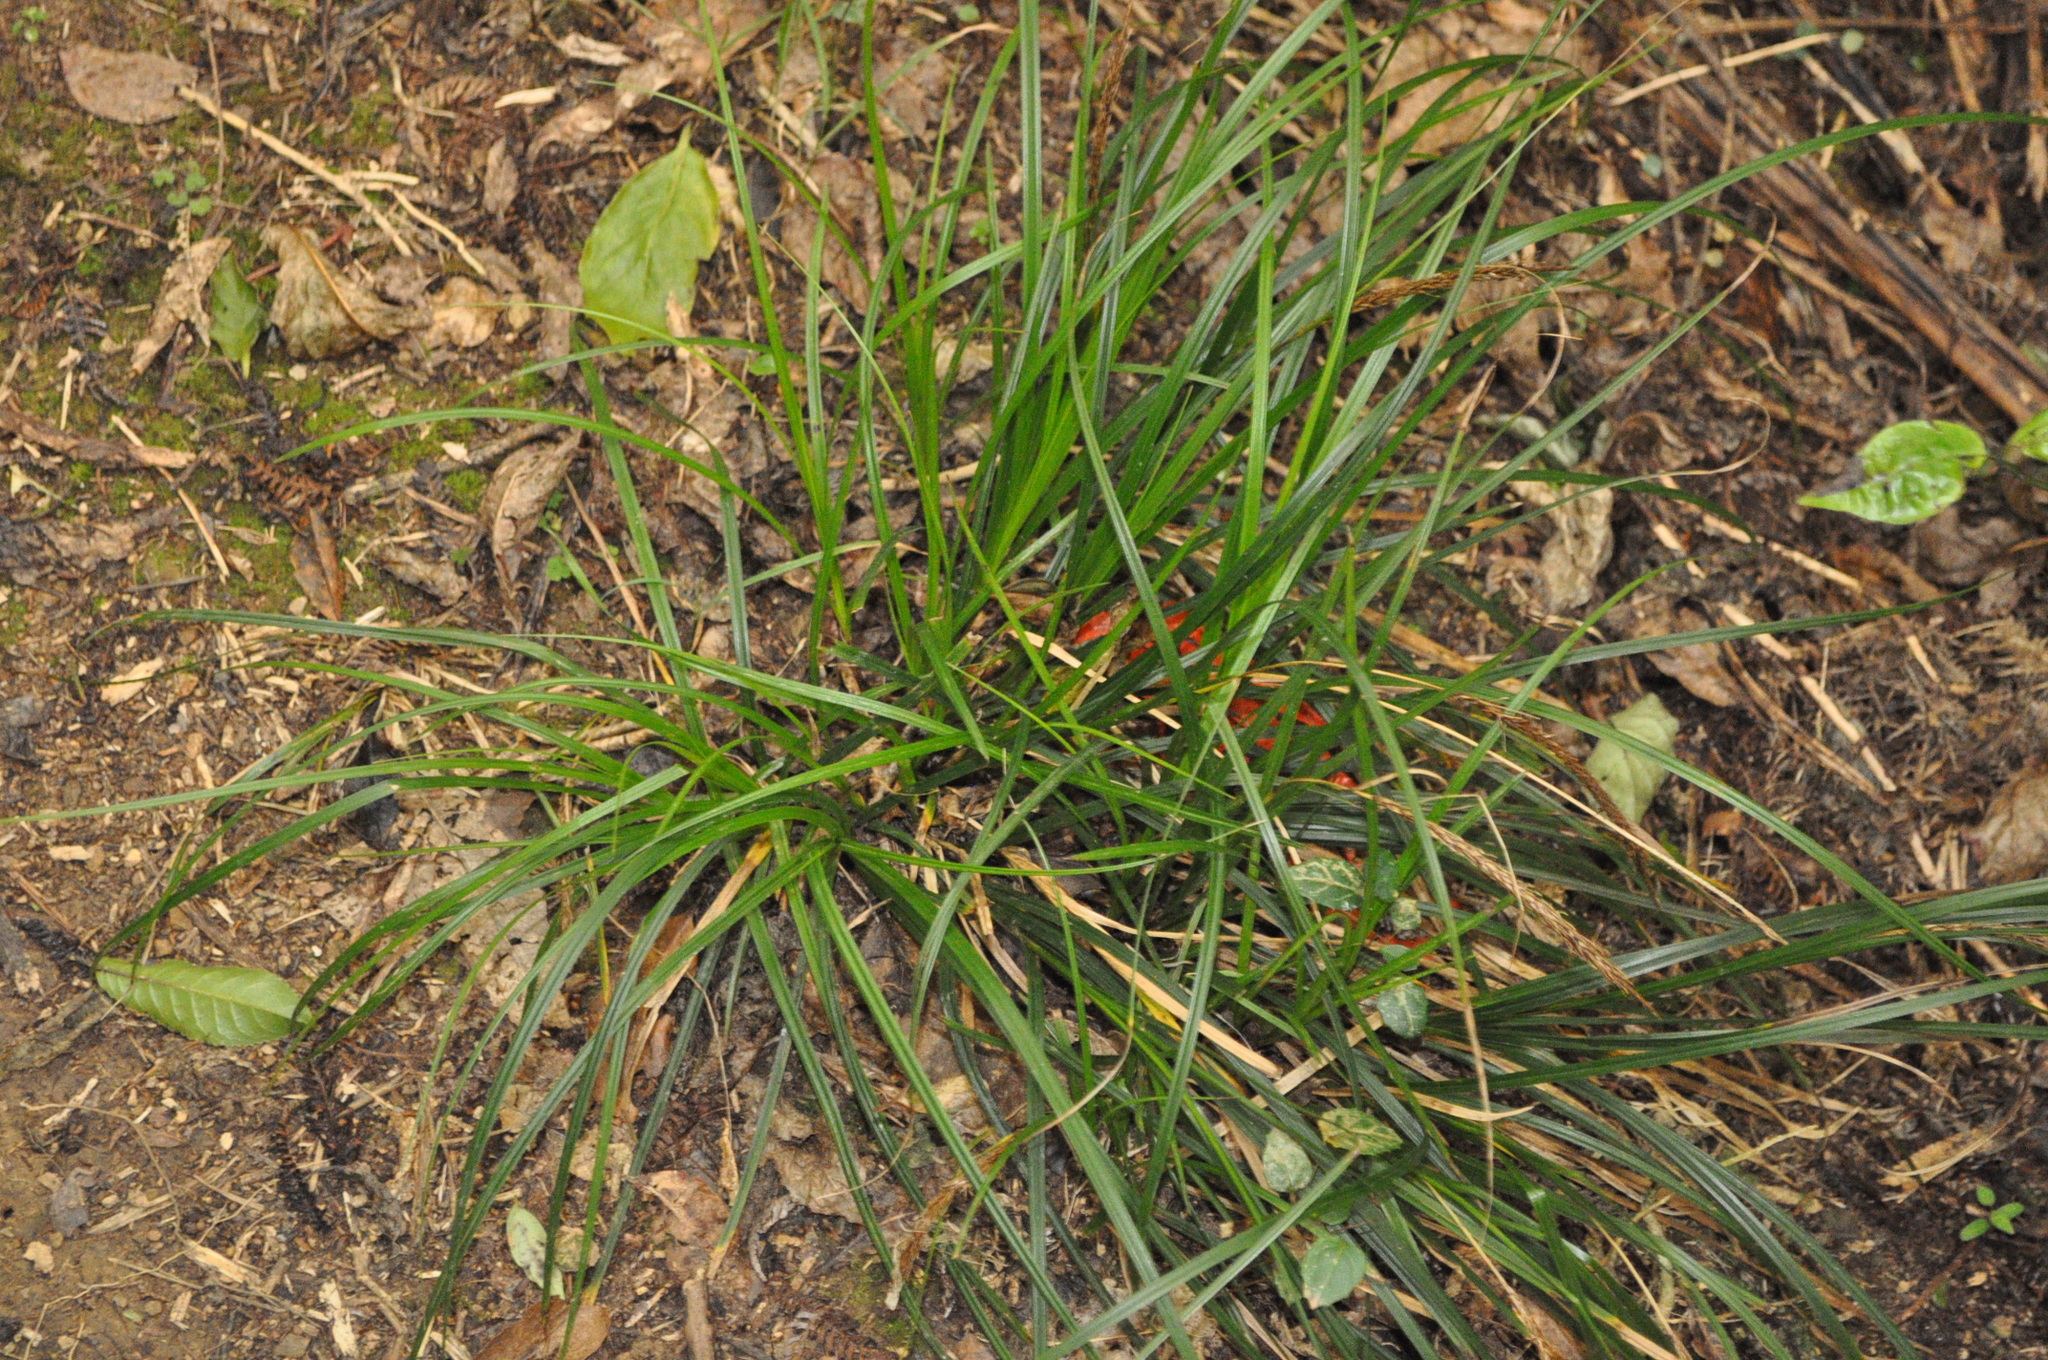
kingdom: Plantae
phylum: Tracheophyta
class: Liliopsida
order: Poales
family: Cyperaceae
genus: Carex
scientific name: Carex uncinata
